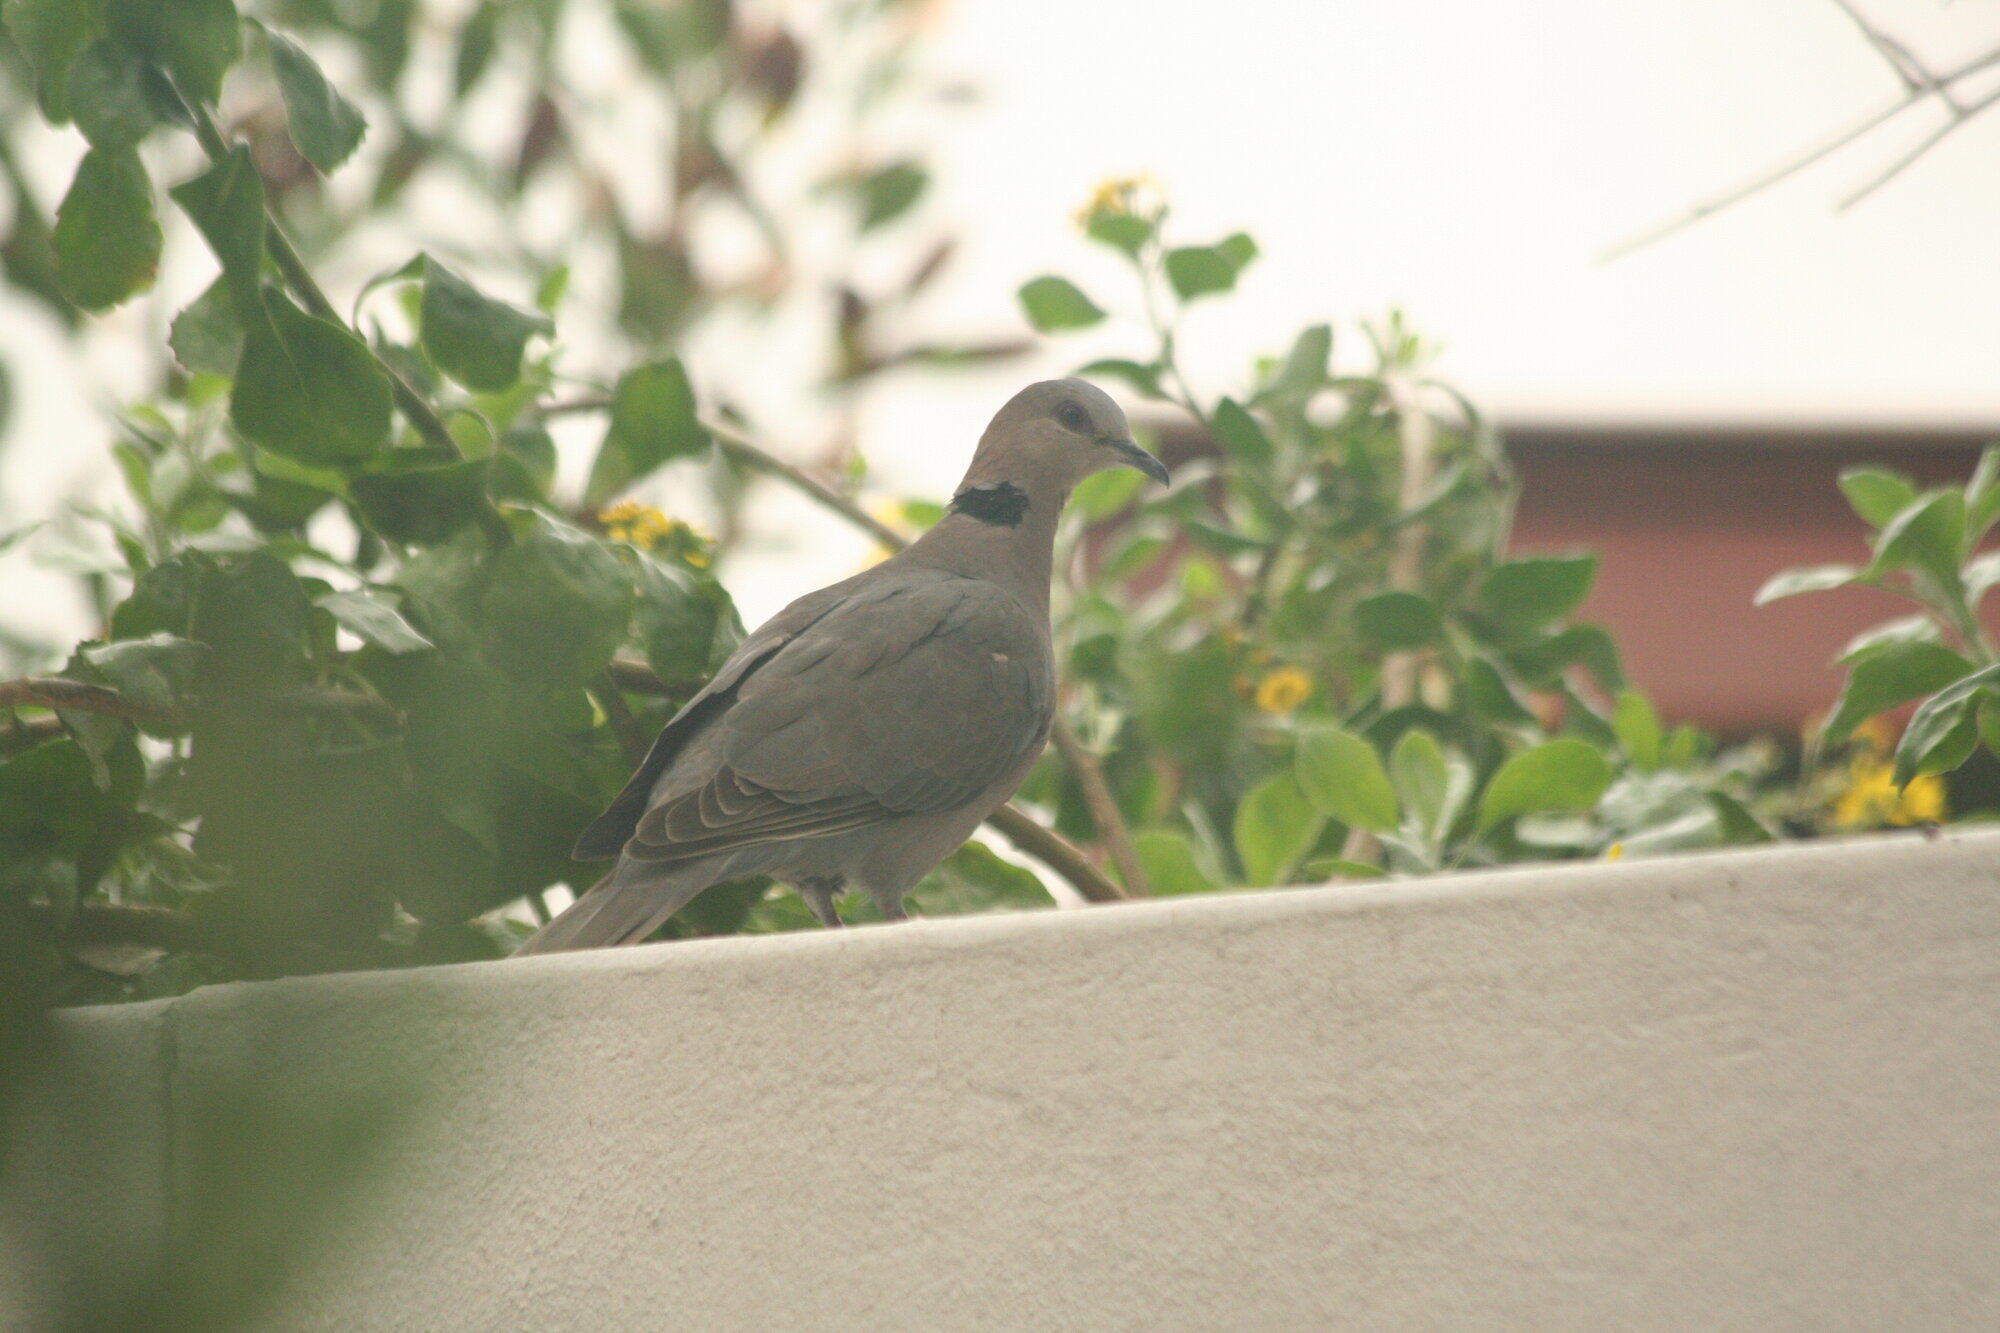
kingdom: Animalia
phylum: Chordata
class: Aves
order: Columbiformes
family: Columbidae
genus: Streptopelia
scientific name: Streptopelia semitorquata
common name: Red-eyed dove
